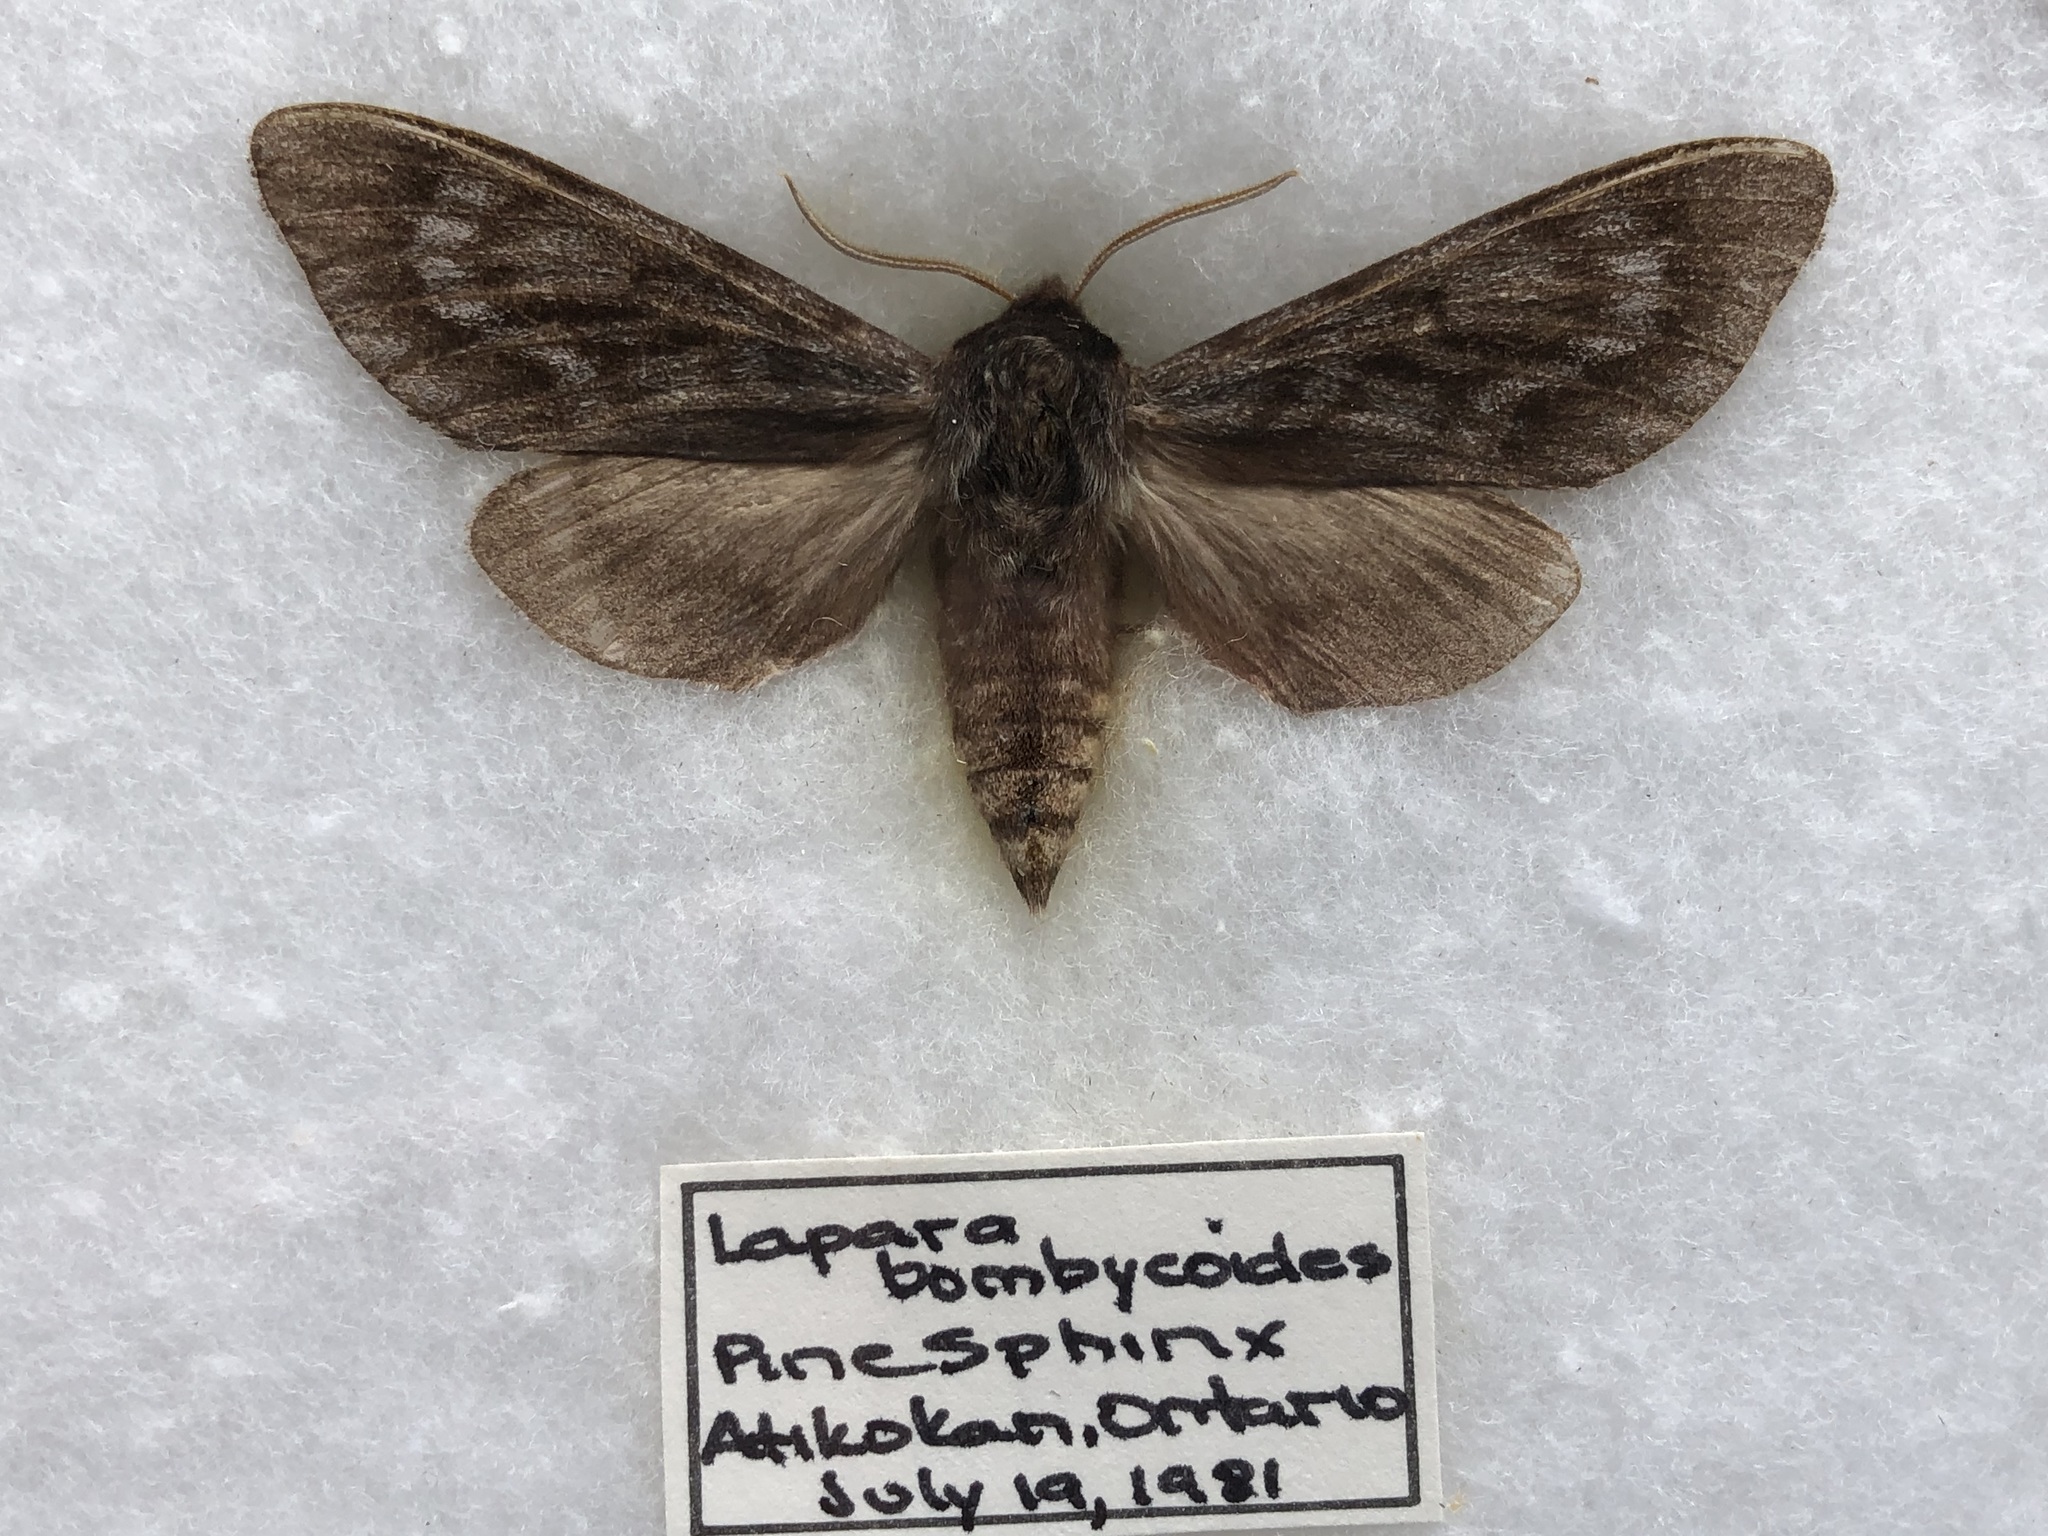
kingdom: Animalia
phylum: Arthropoda
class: Insecta
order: Lepidoptera
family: Sphingidae
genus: Lapara
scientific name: Lapara bombycoides
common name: Northern pine sphinx
